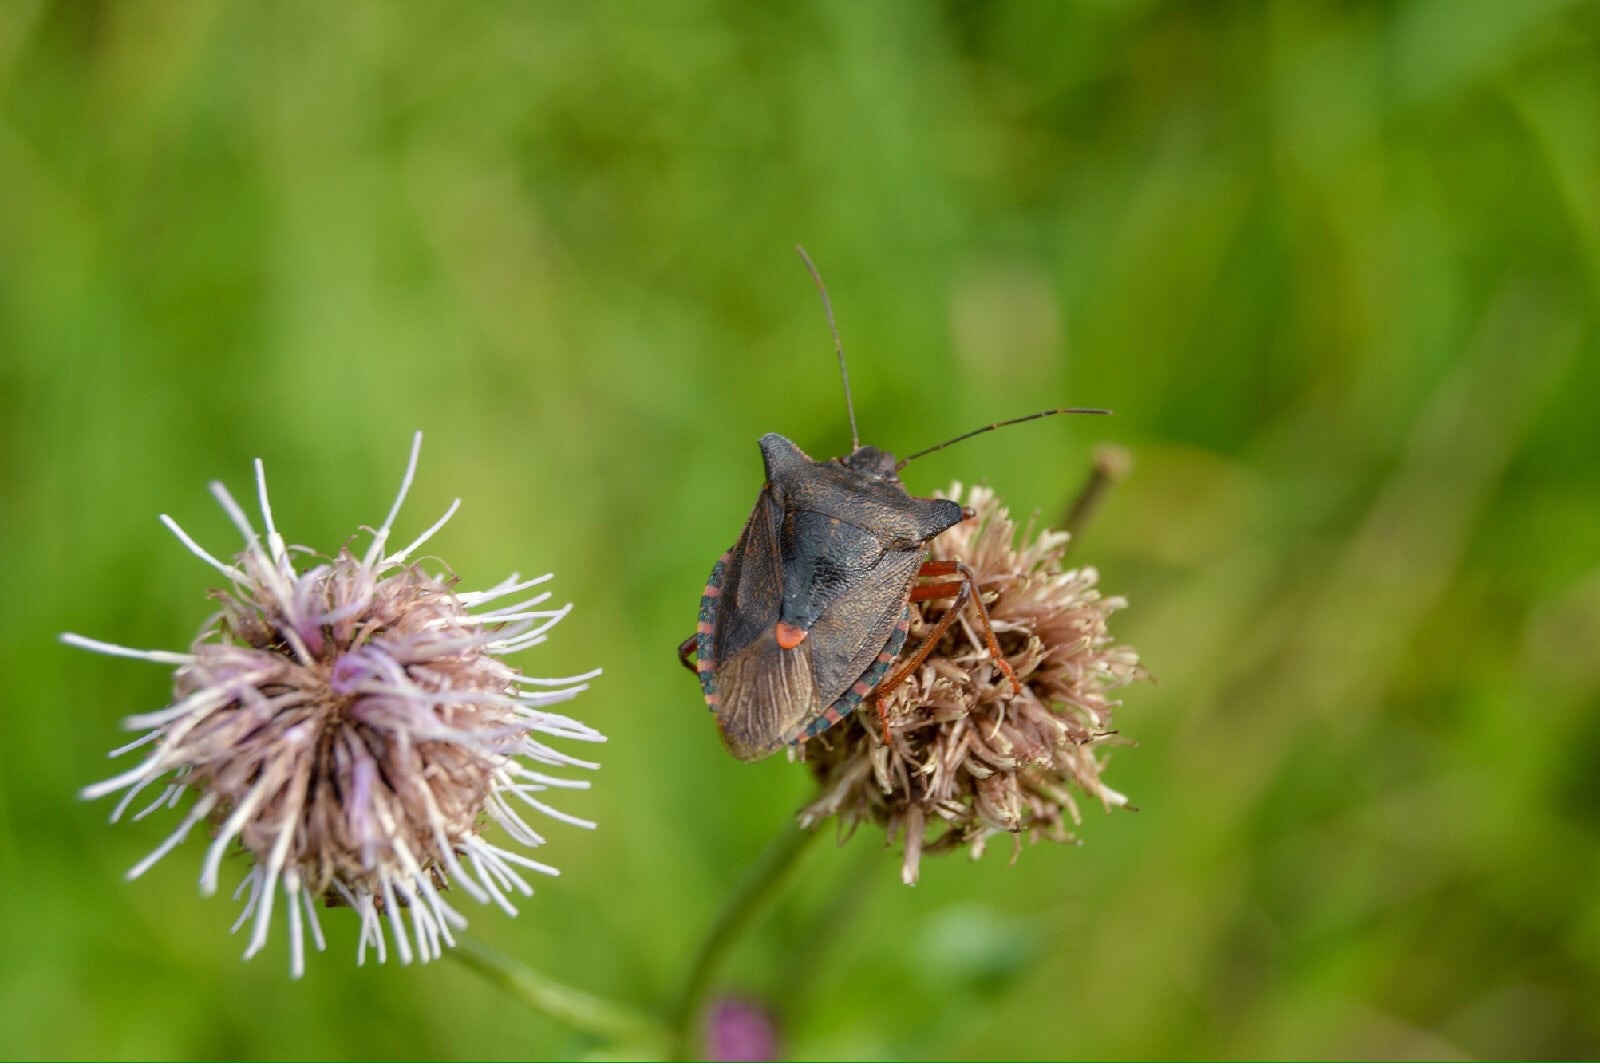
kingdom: Animalia
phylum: Arthropoda
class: Insecta
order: Hemiptera
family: Pentatomidae
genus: Pentatoma
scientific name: Pentatoma rufipes
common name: Forest bug
